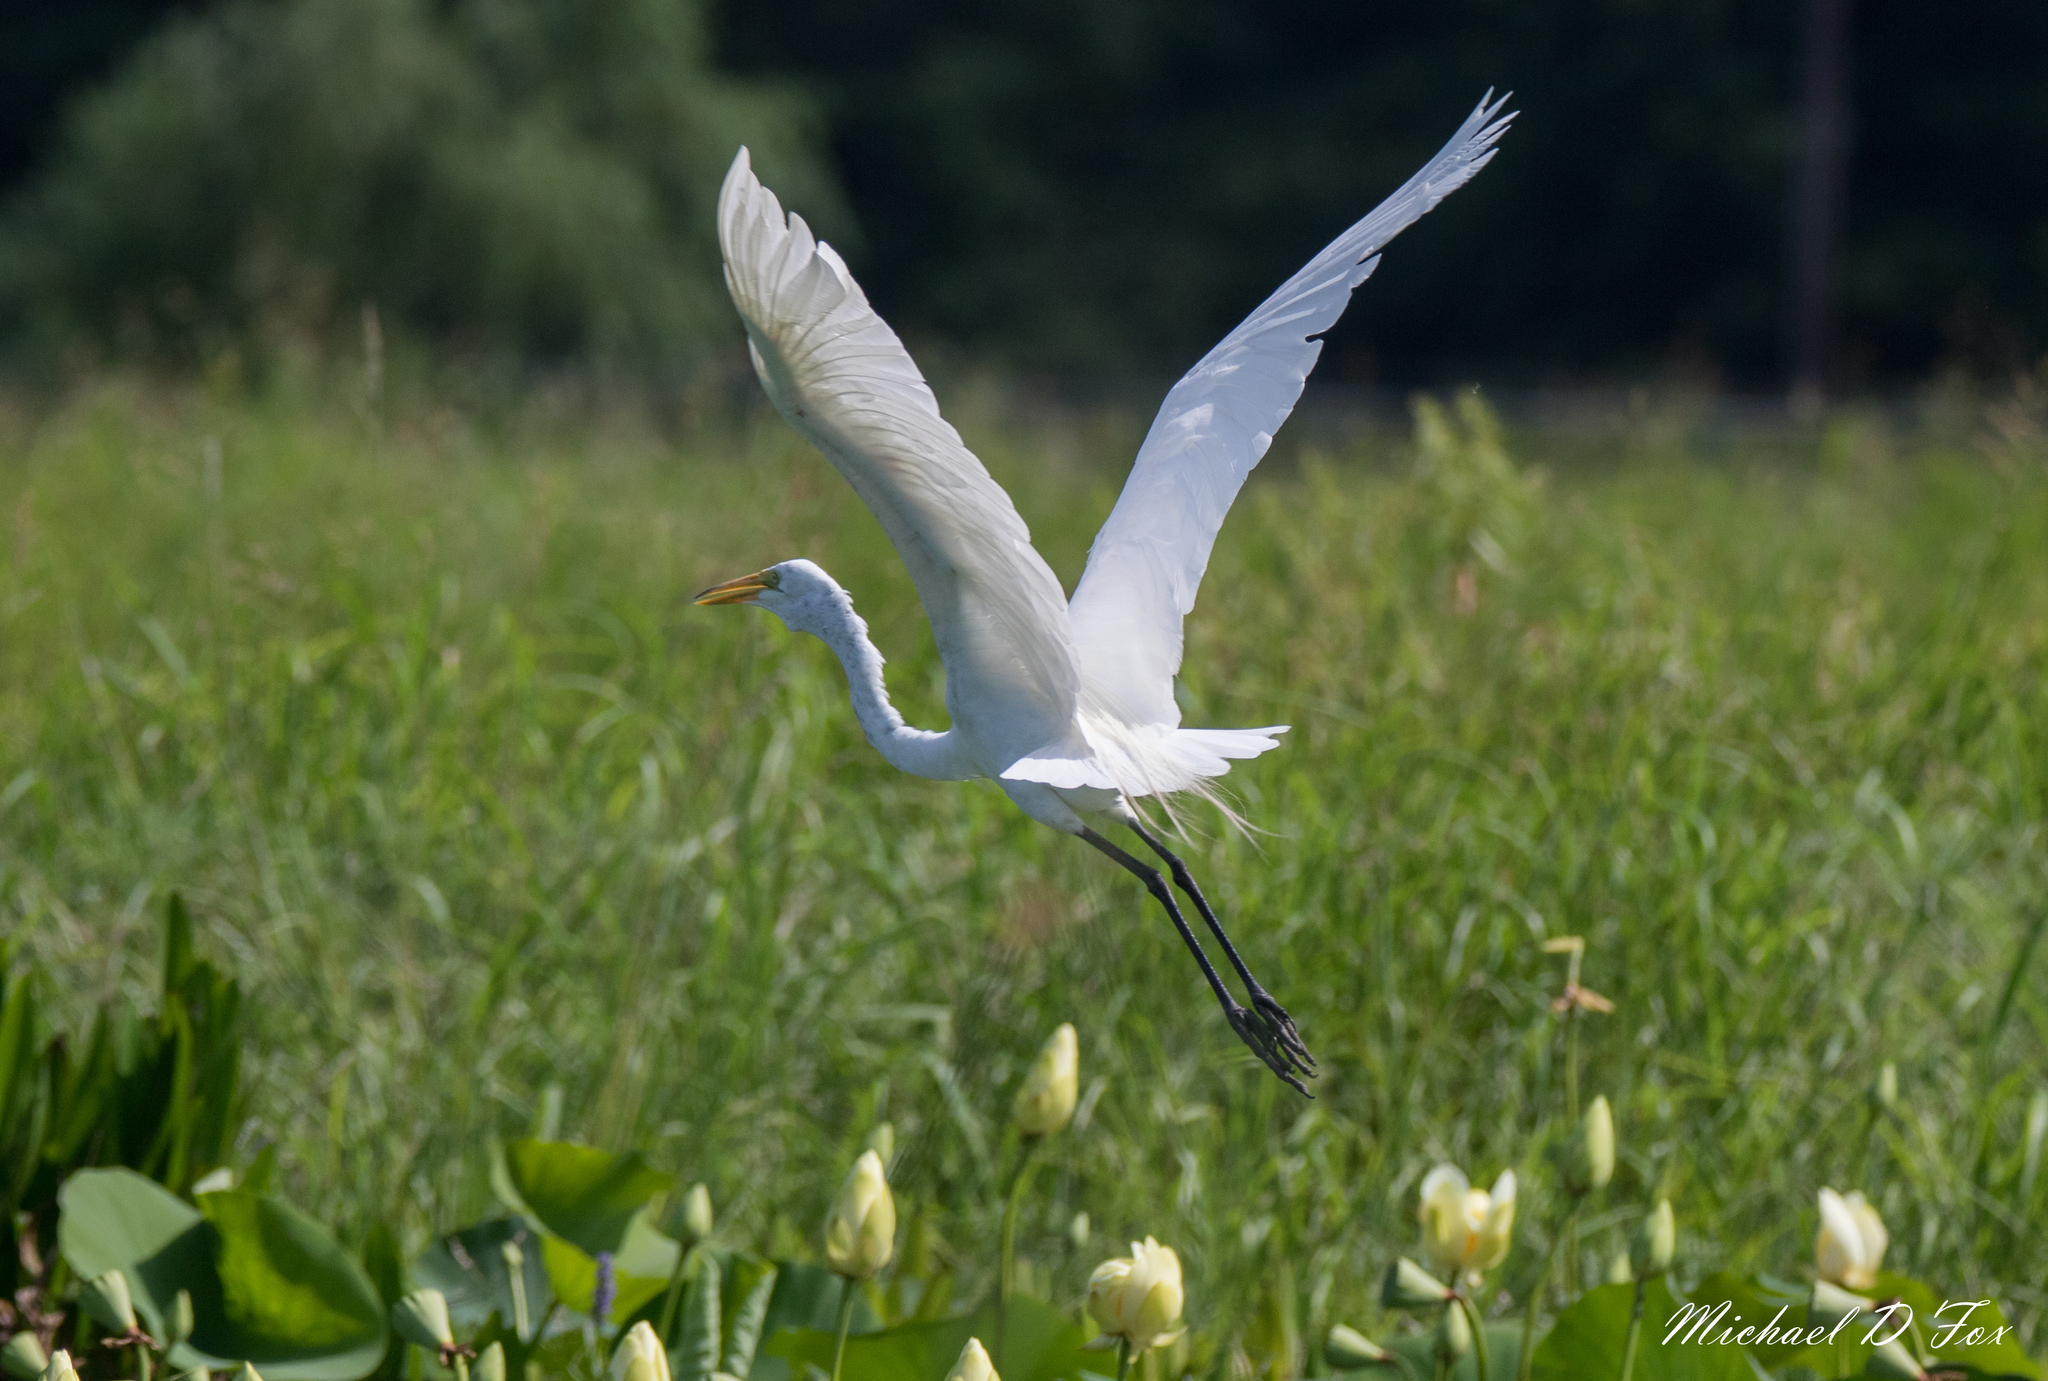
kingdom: Animalia
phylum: Chordata
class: Aves
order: Pelecaniformes
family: Ardeidae
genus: Ardea
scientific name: Ardea alba
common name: Great egret
